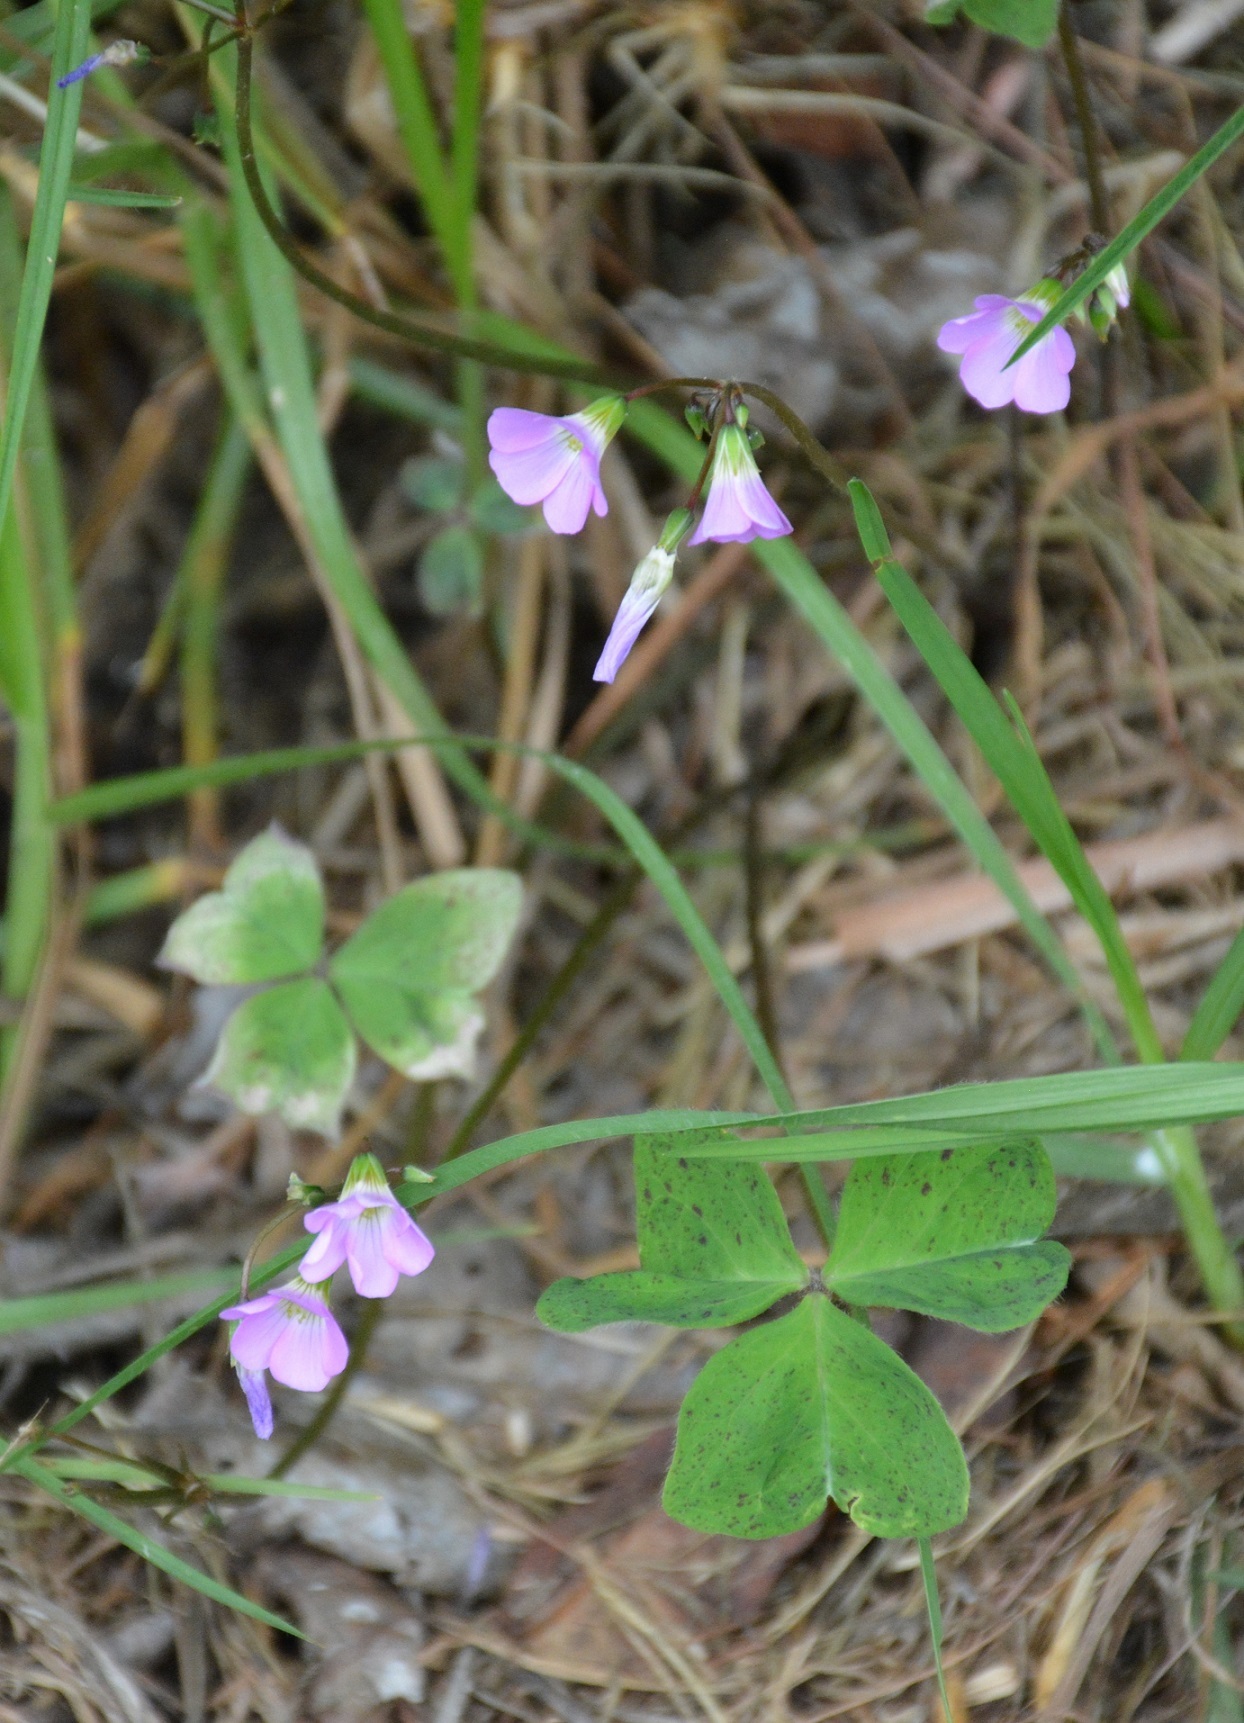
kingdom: Plantae
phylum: Tracheophyta
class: Magnoliopsida
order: Oxalidales
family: Oxalidaceae
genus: Oxalis
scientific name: Oxalis latifolia
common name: Garden pink-sorrel
